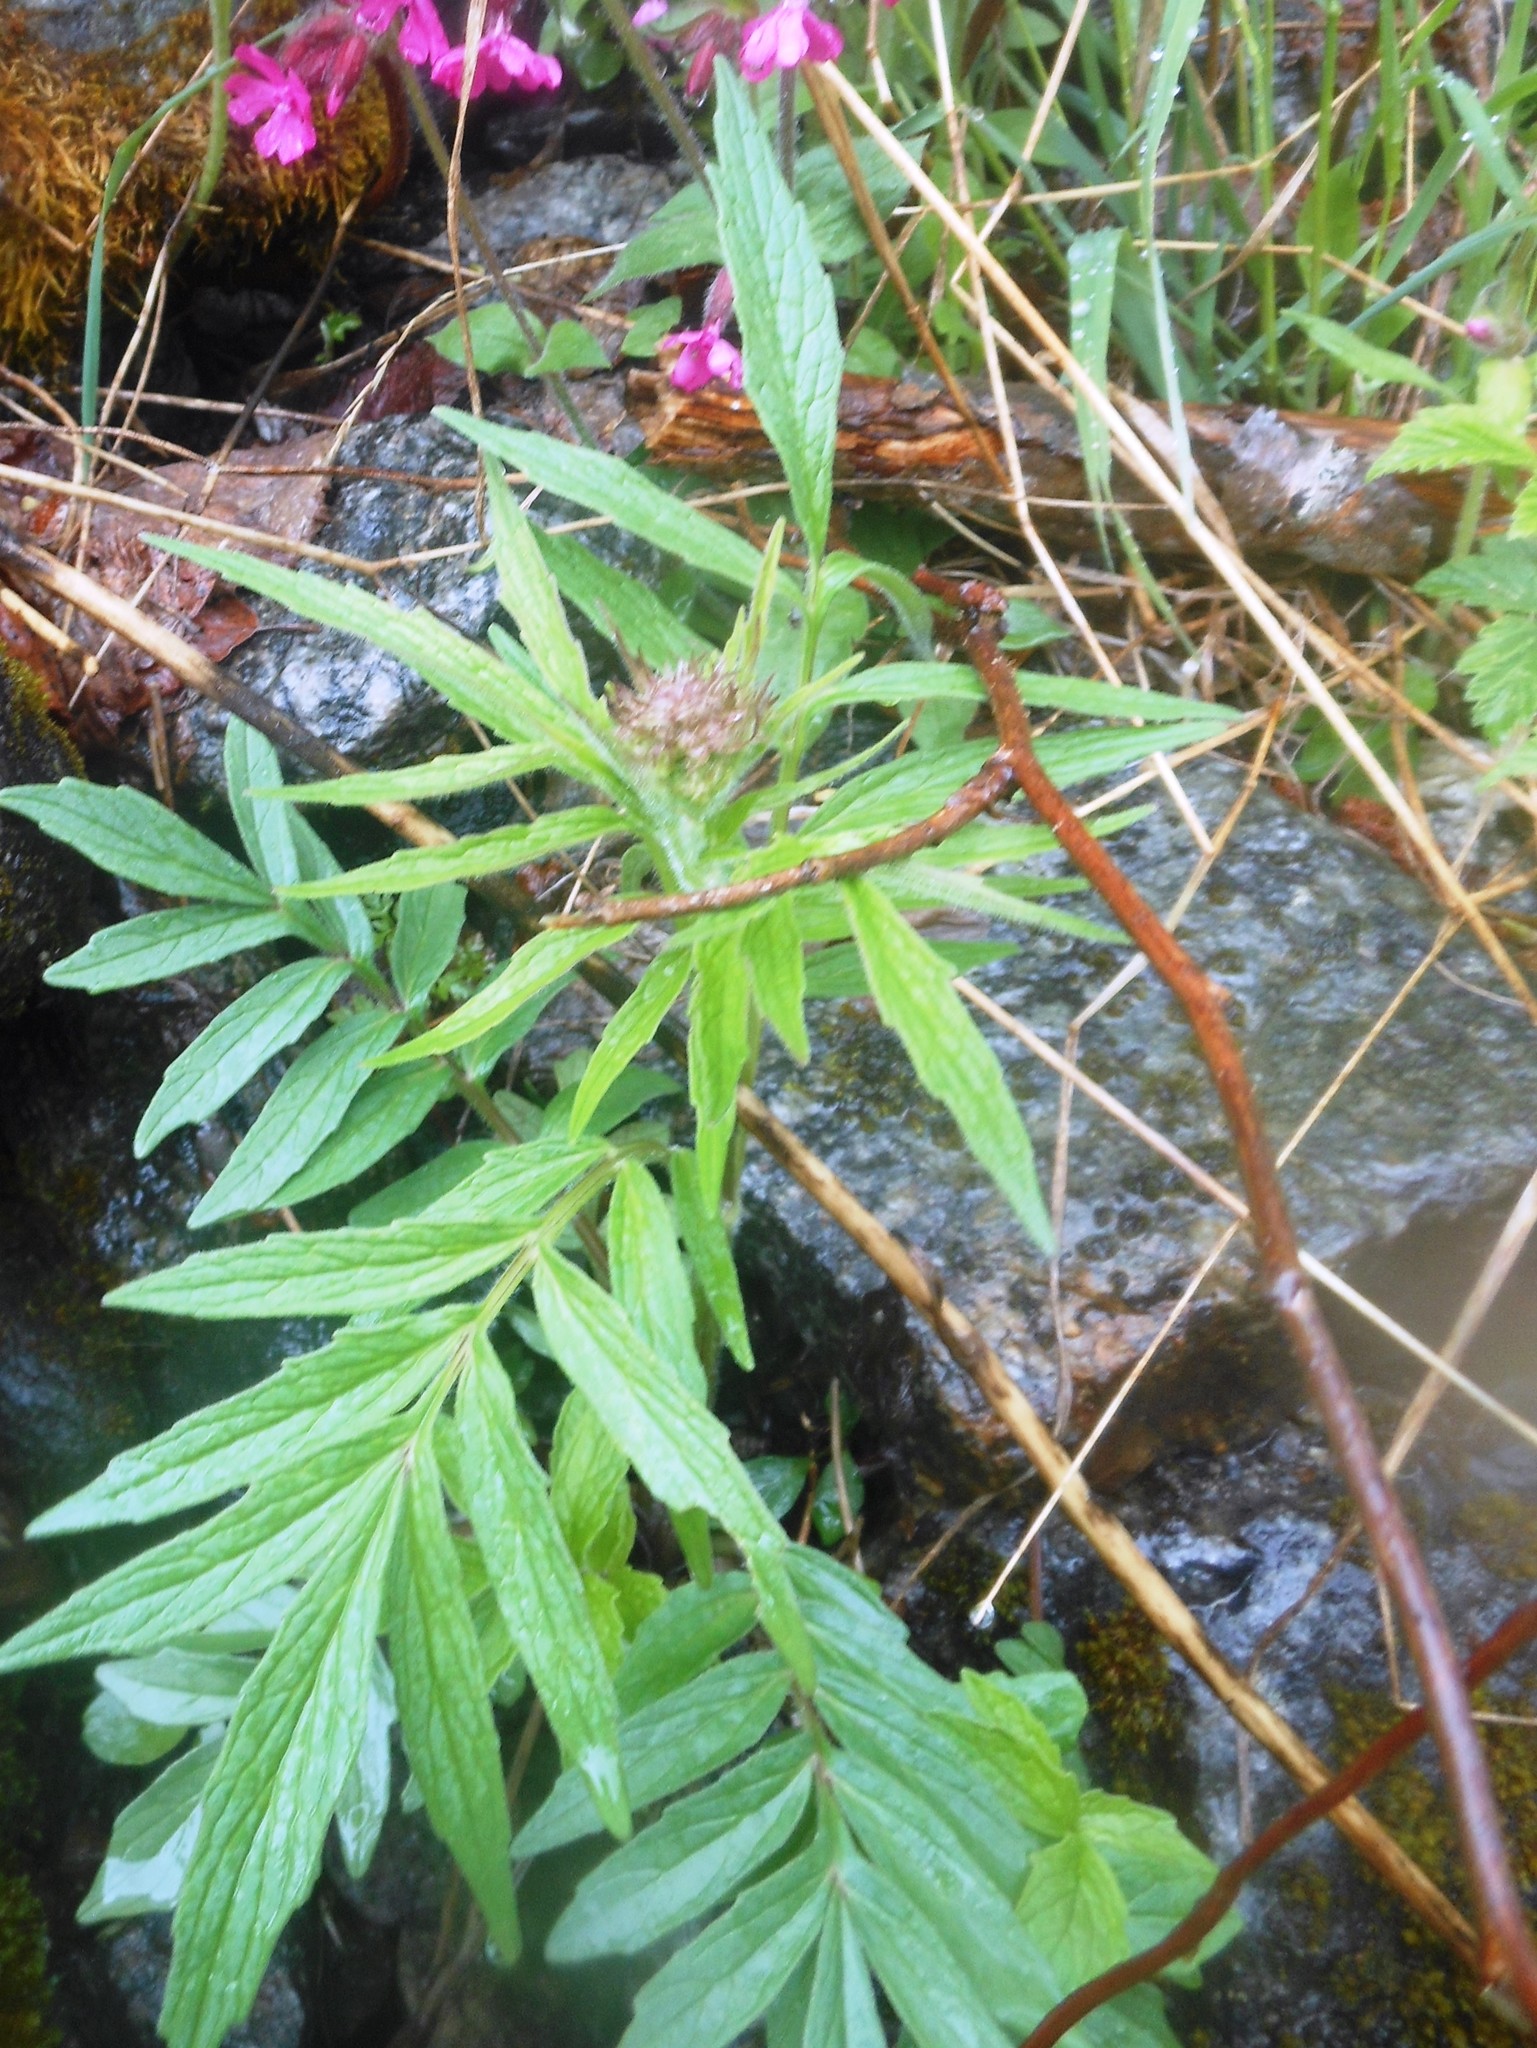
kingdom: Plantae
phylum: Tracheophyta
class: Magnoliopsida
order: Dipsacales
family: Caprifoliaceae
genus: Valeriana
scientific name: Valeriana sambucifolia
